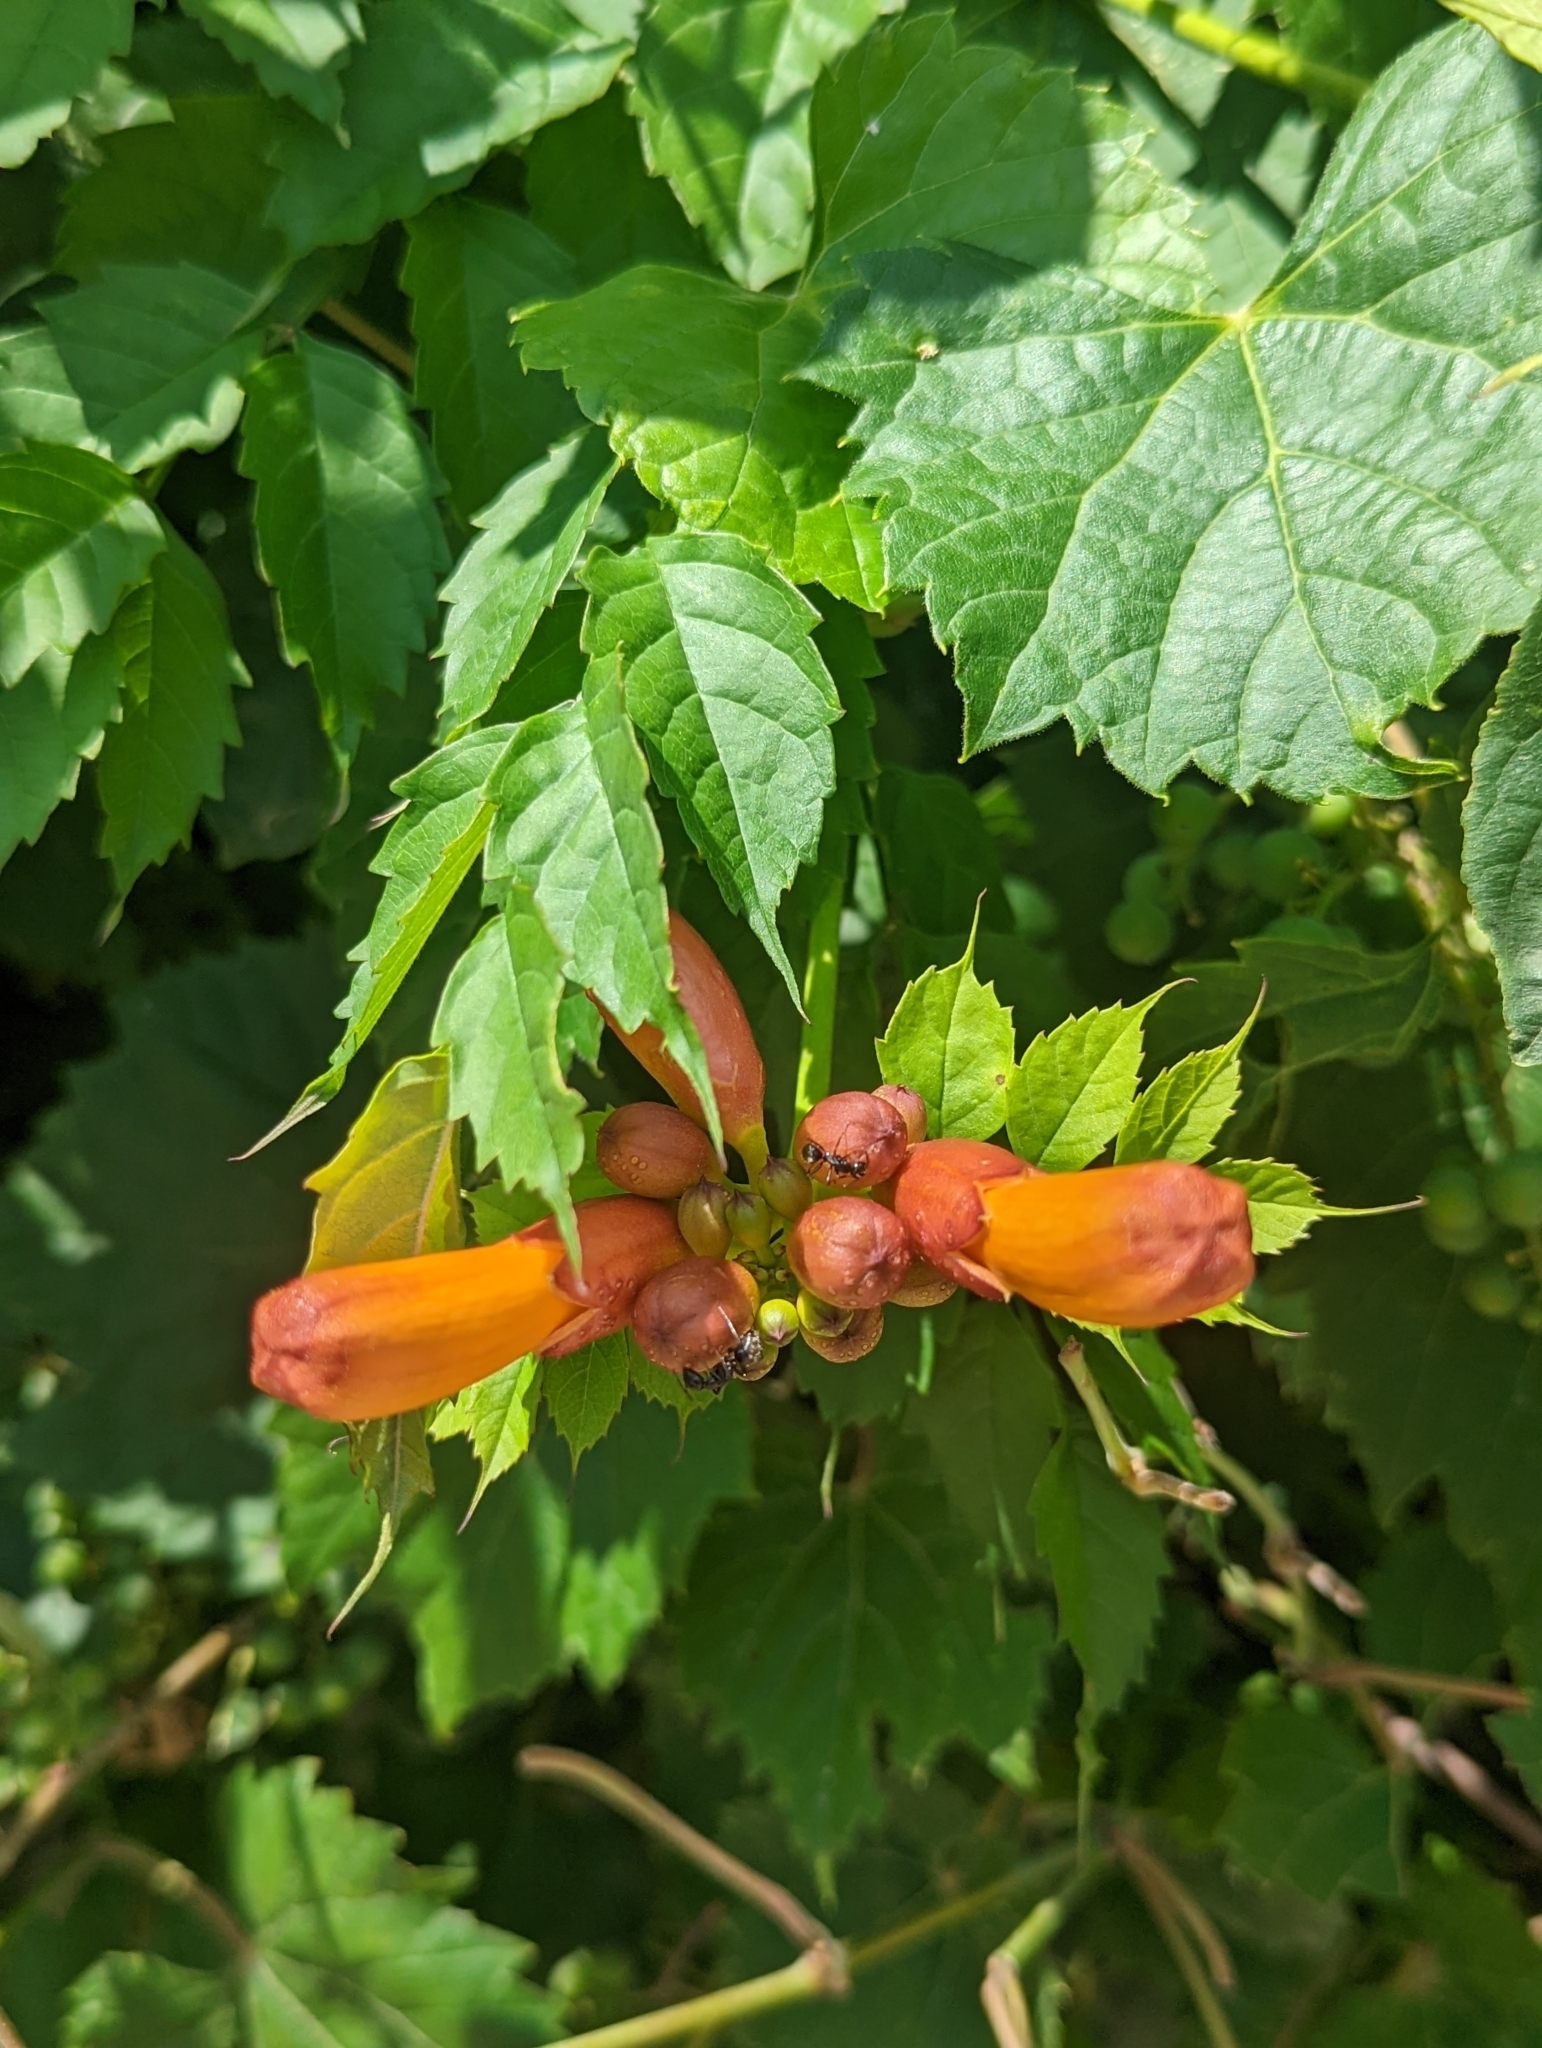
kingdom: Plantae
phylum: Tracheophyta
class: Magnoliopsida
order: Lamiales
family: Bignoniaceae
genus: Campsis
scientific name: Campsis radicans
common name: Trumpet-creeper
